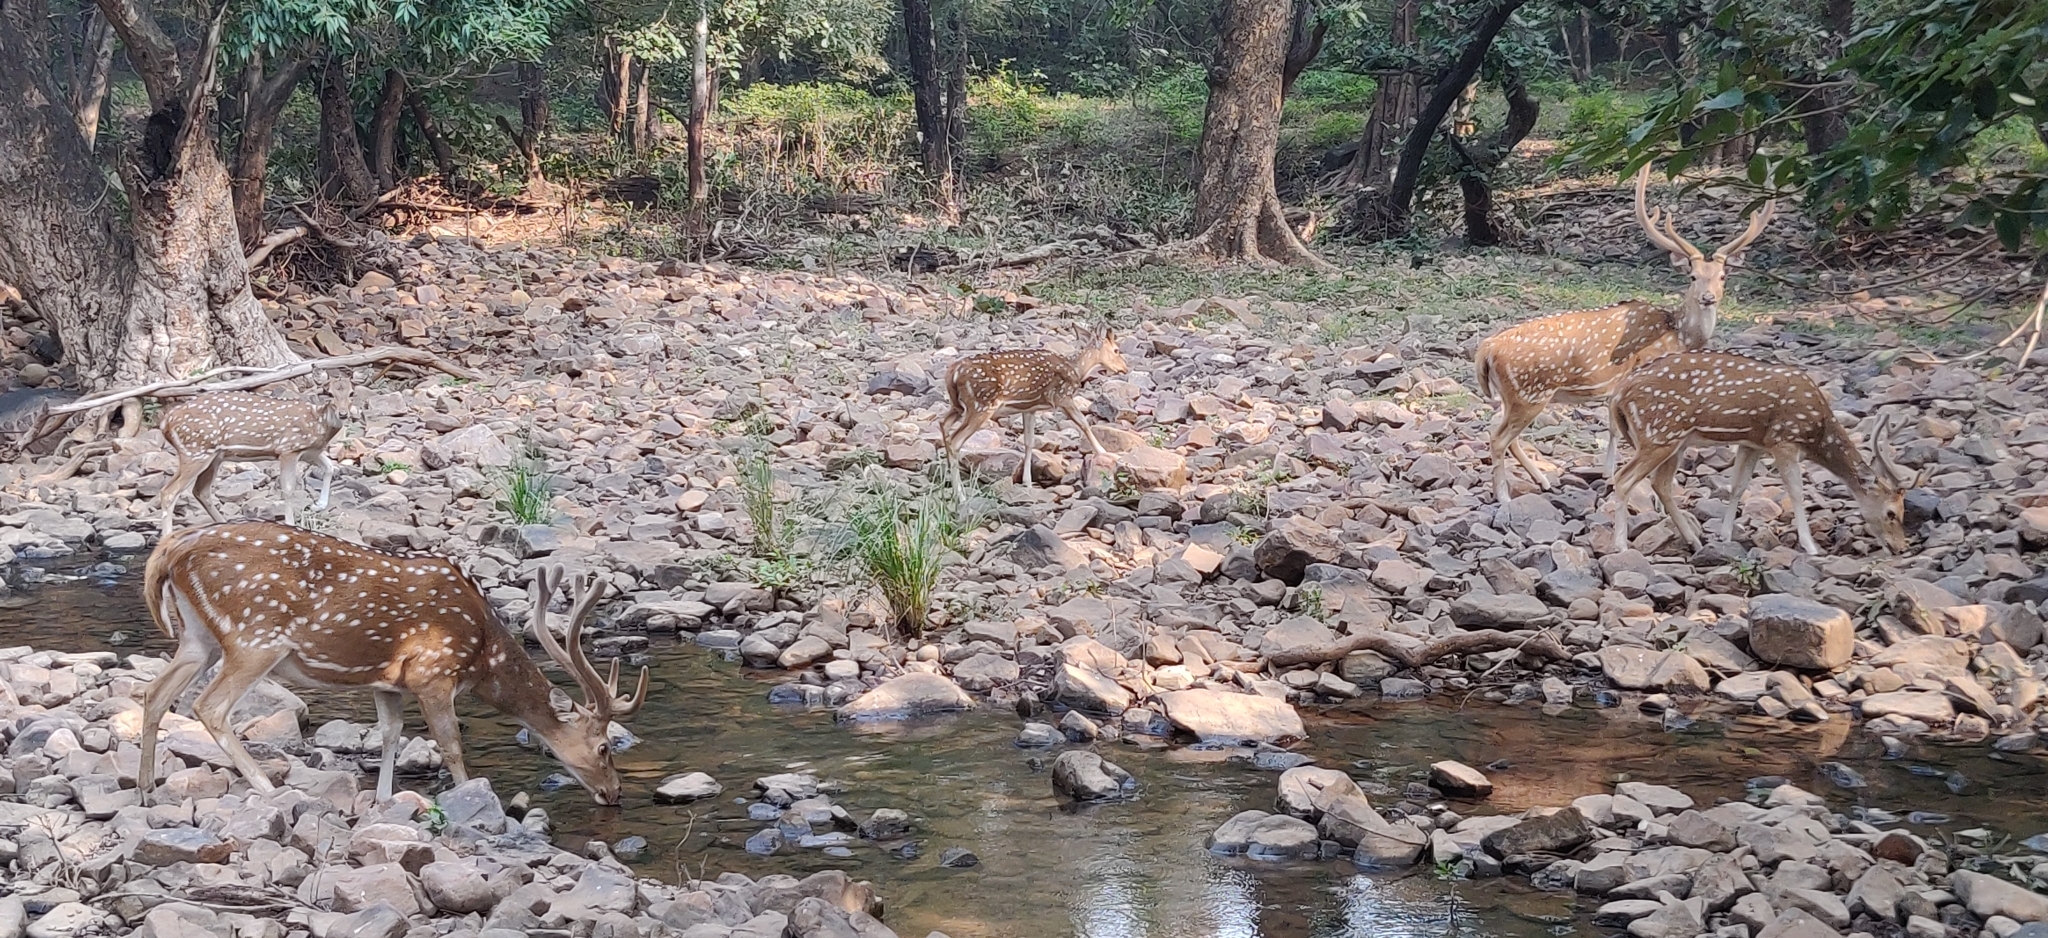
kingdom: Animalia
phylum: Chordata
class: Mammalia
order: Artiodactyla
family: Cervidae
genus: Axis
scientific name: Axis axis
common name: Chital
